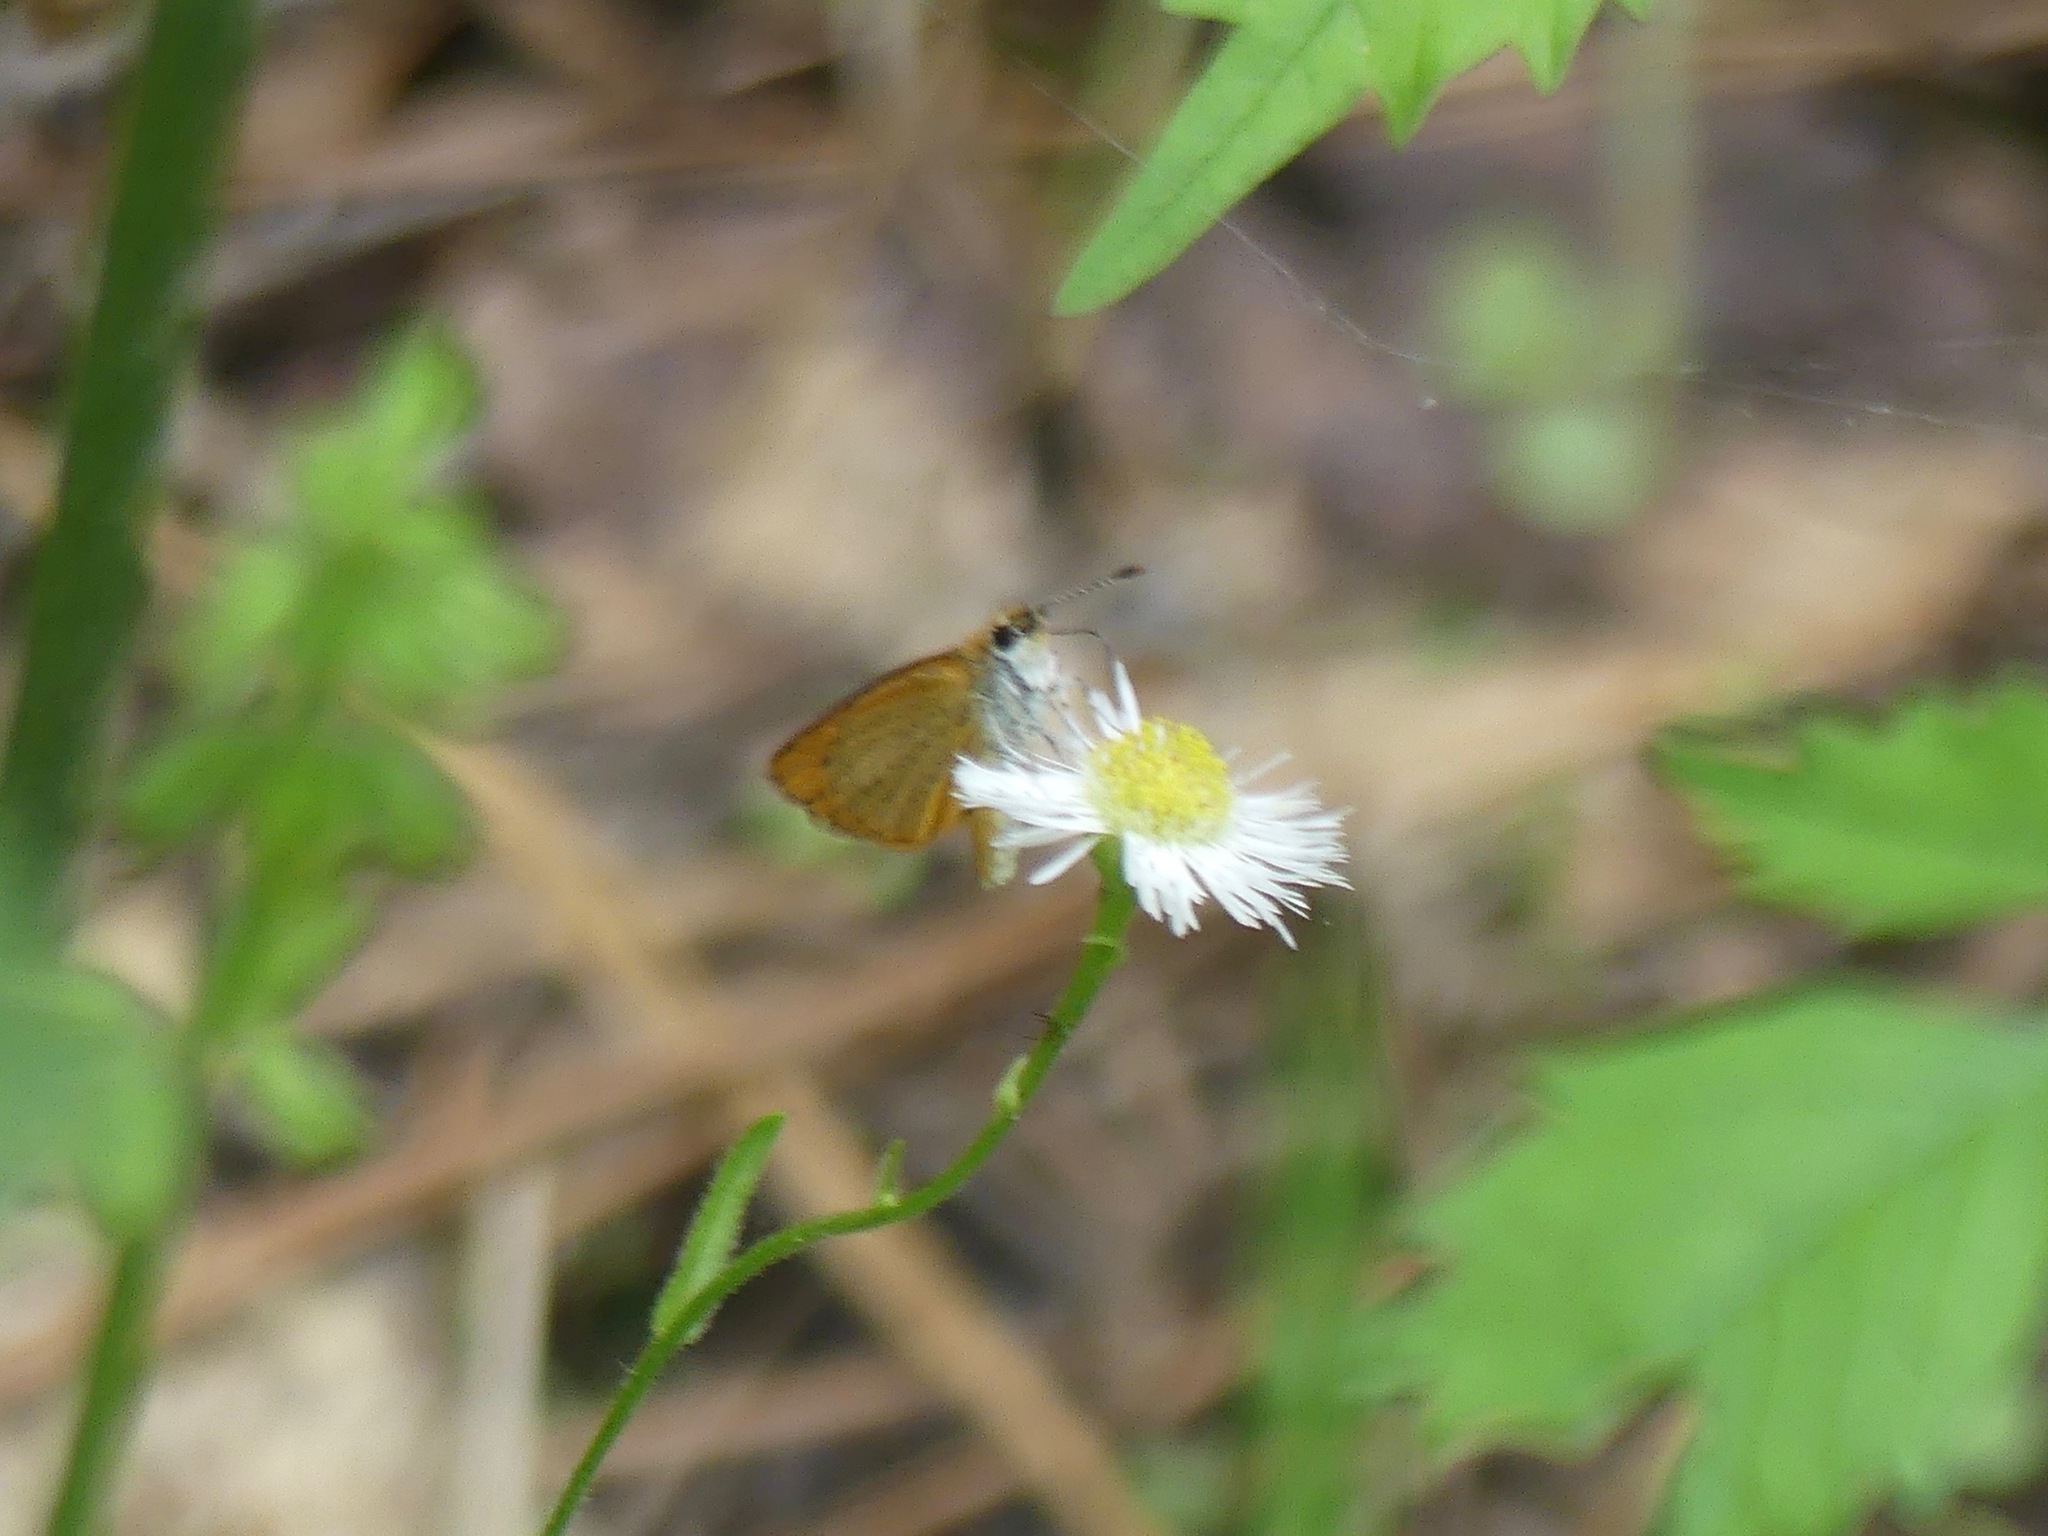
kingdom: Animalia
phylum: Arthropoda
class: Insecta
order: Lepidoptera
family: Hesperiidae
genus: Ancyloxypha
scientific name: Ancyloxypha numitor
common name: Least skipper
